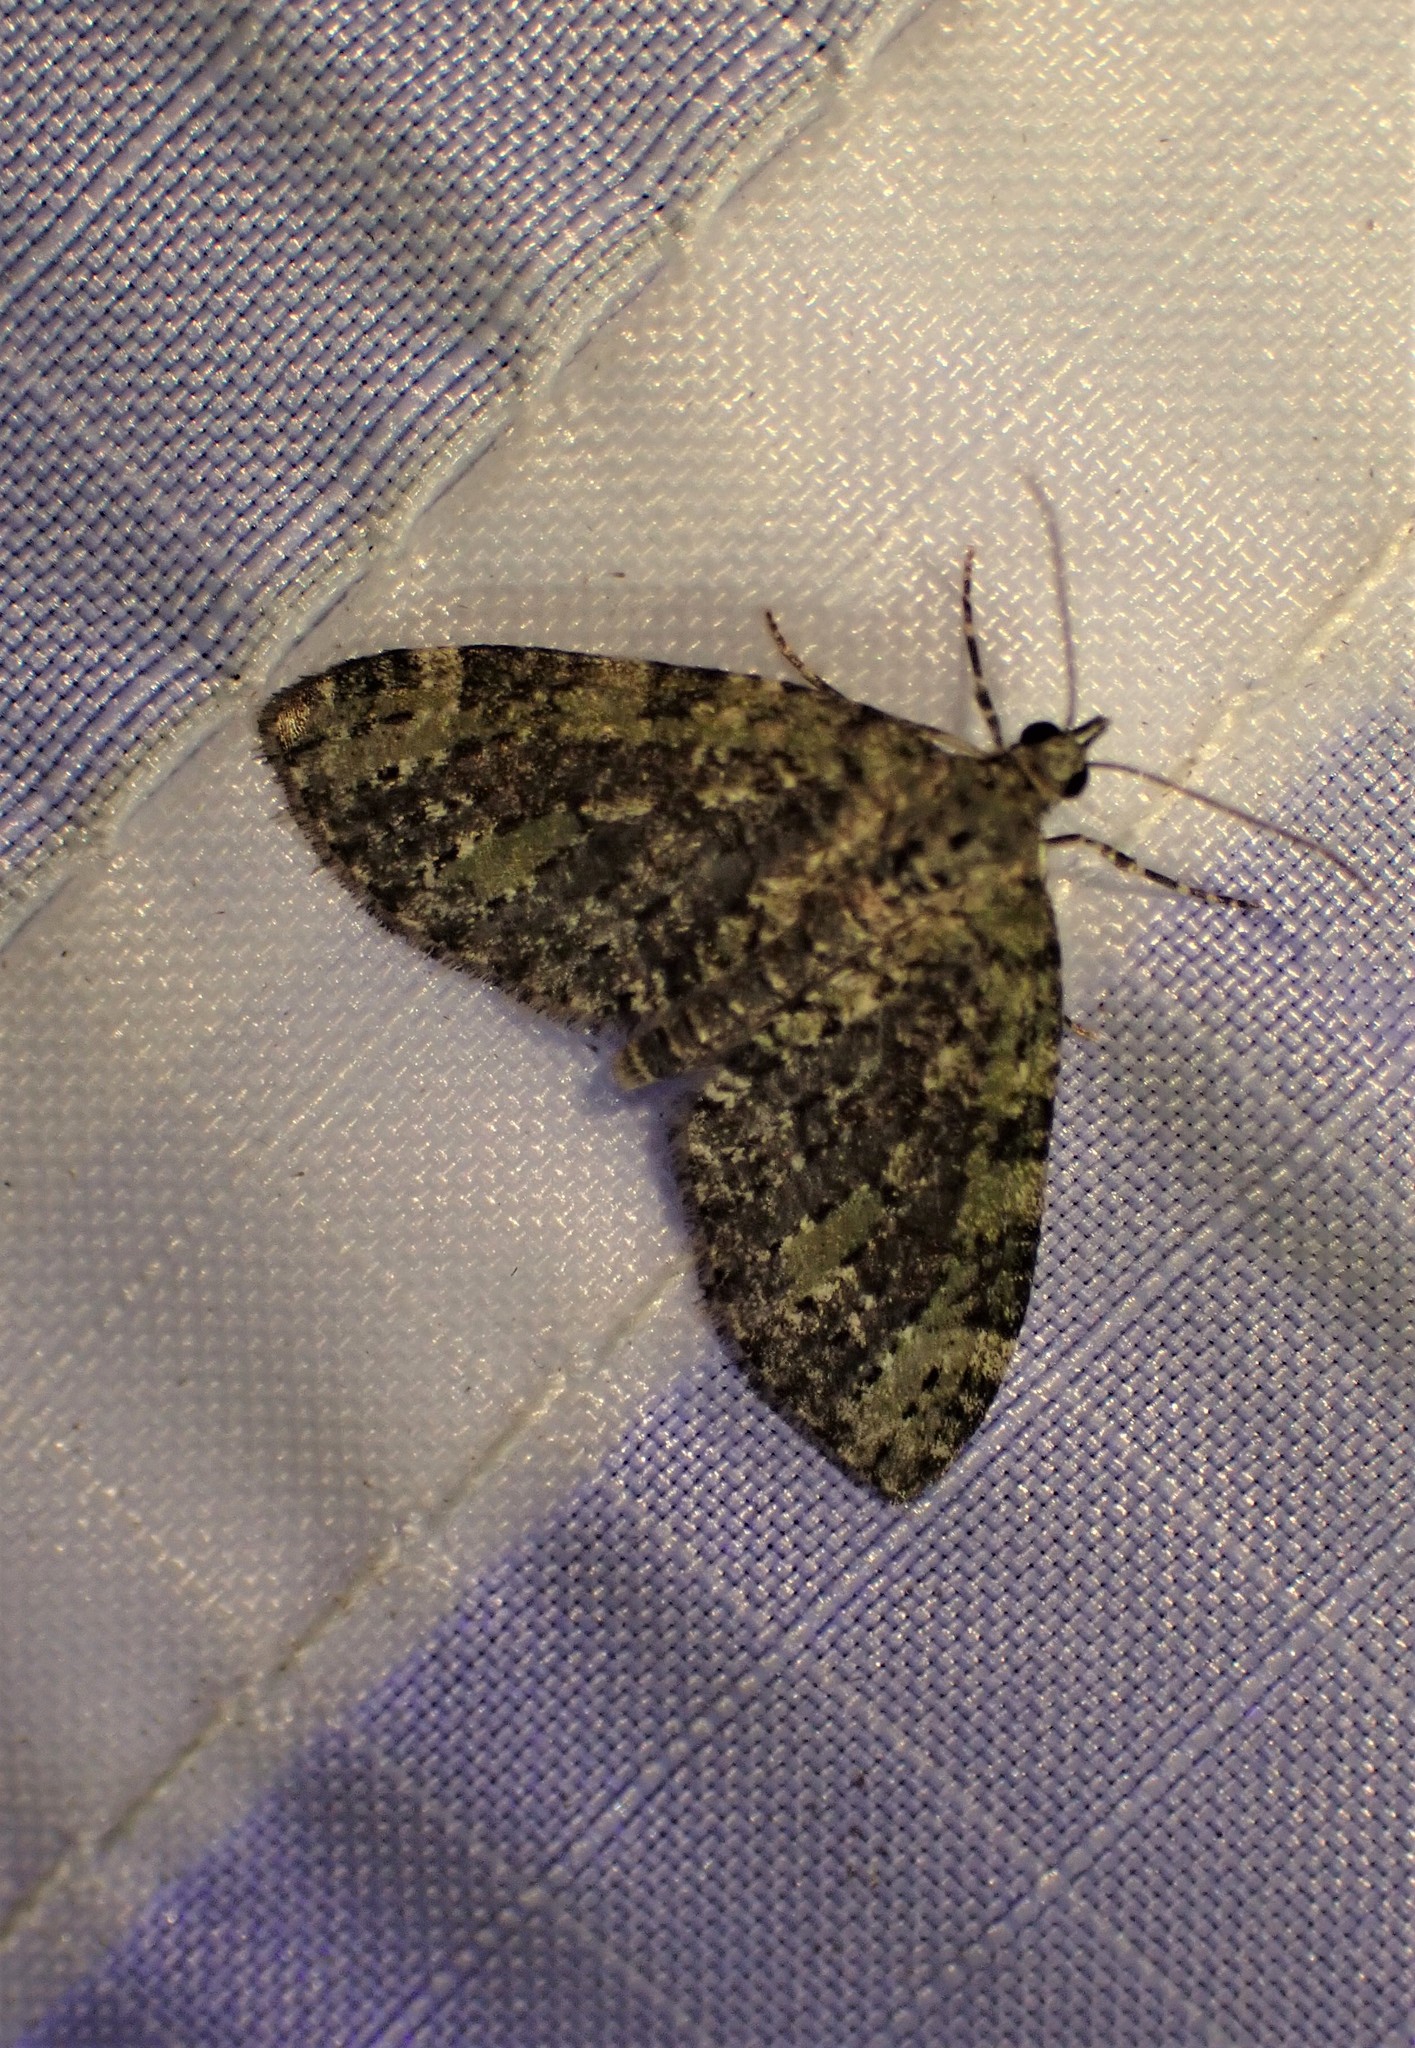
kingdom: Animalia
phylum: Arthropoda
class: Insecta
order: Lepidoptera
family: Geometridae
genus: Acasis
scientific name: Acasis viridata
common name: Olive-and-black carpet moth
